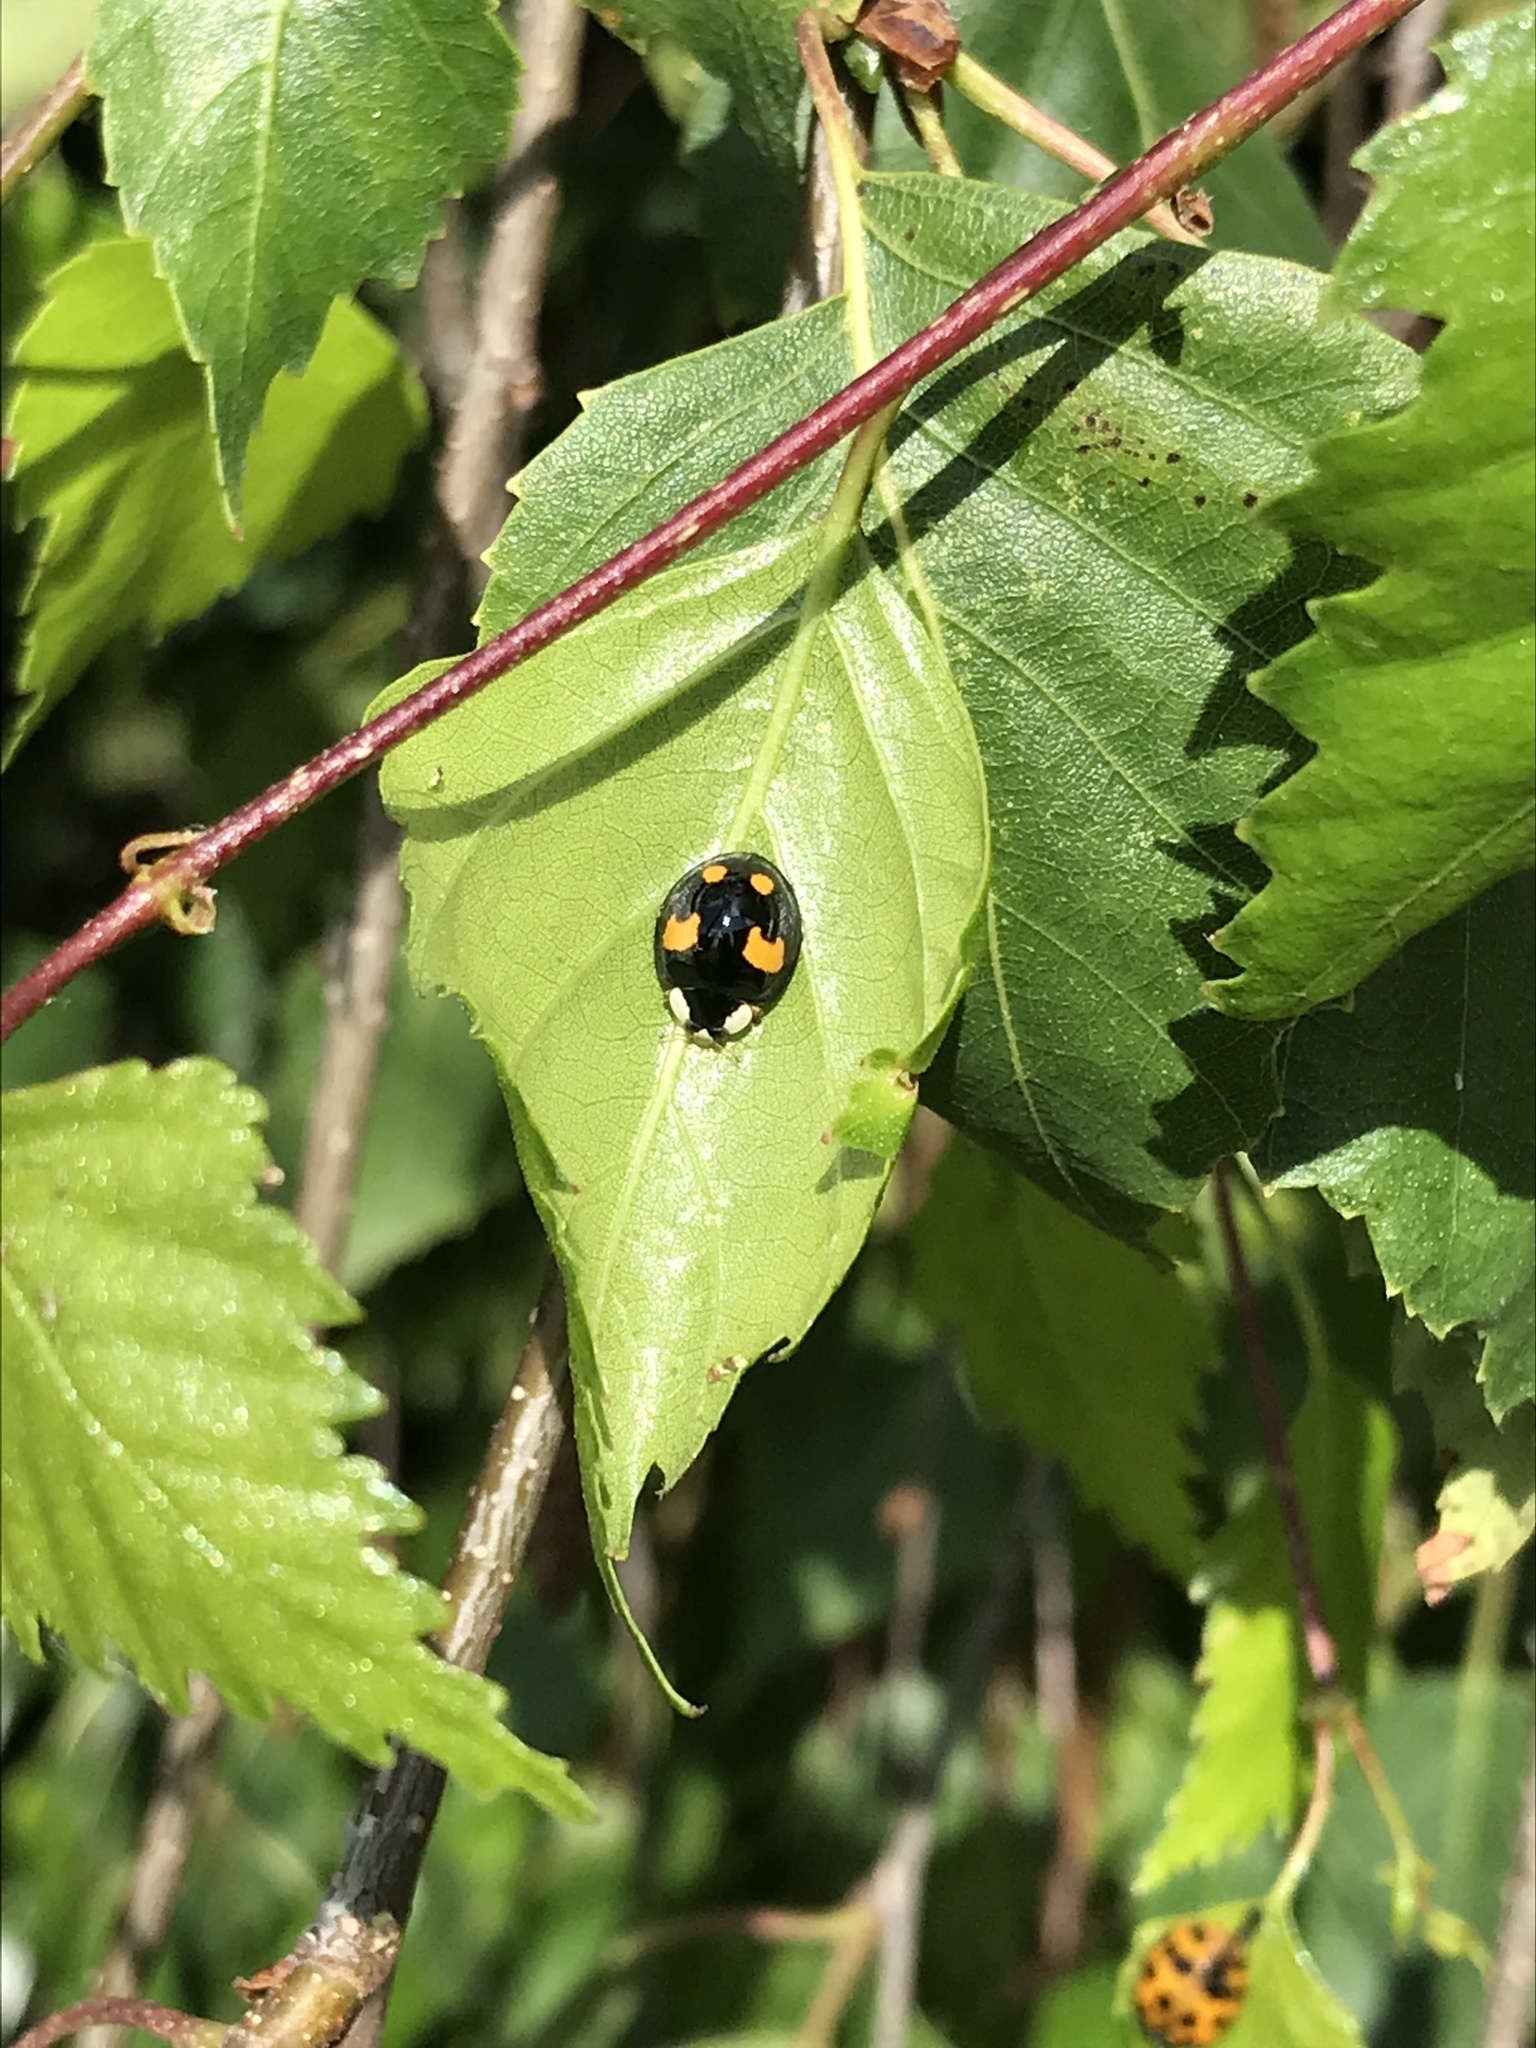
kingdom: Animalia
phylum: Arthropoda
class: Insecta
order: Coleoptera
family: Coccinellidae
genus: Harmonia
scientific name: Harmonia axyridis
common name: Harlequin ladybird
